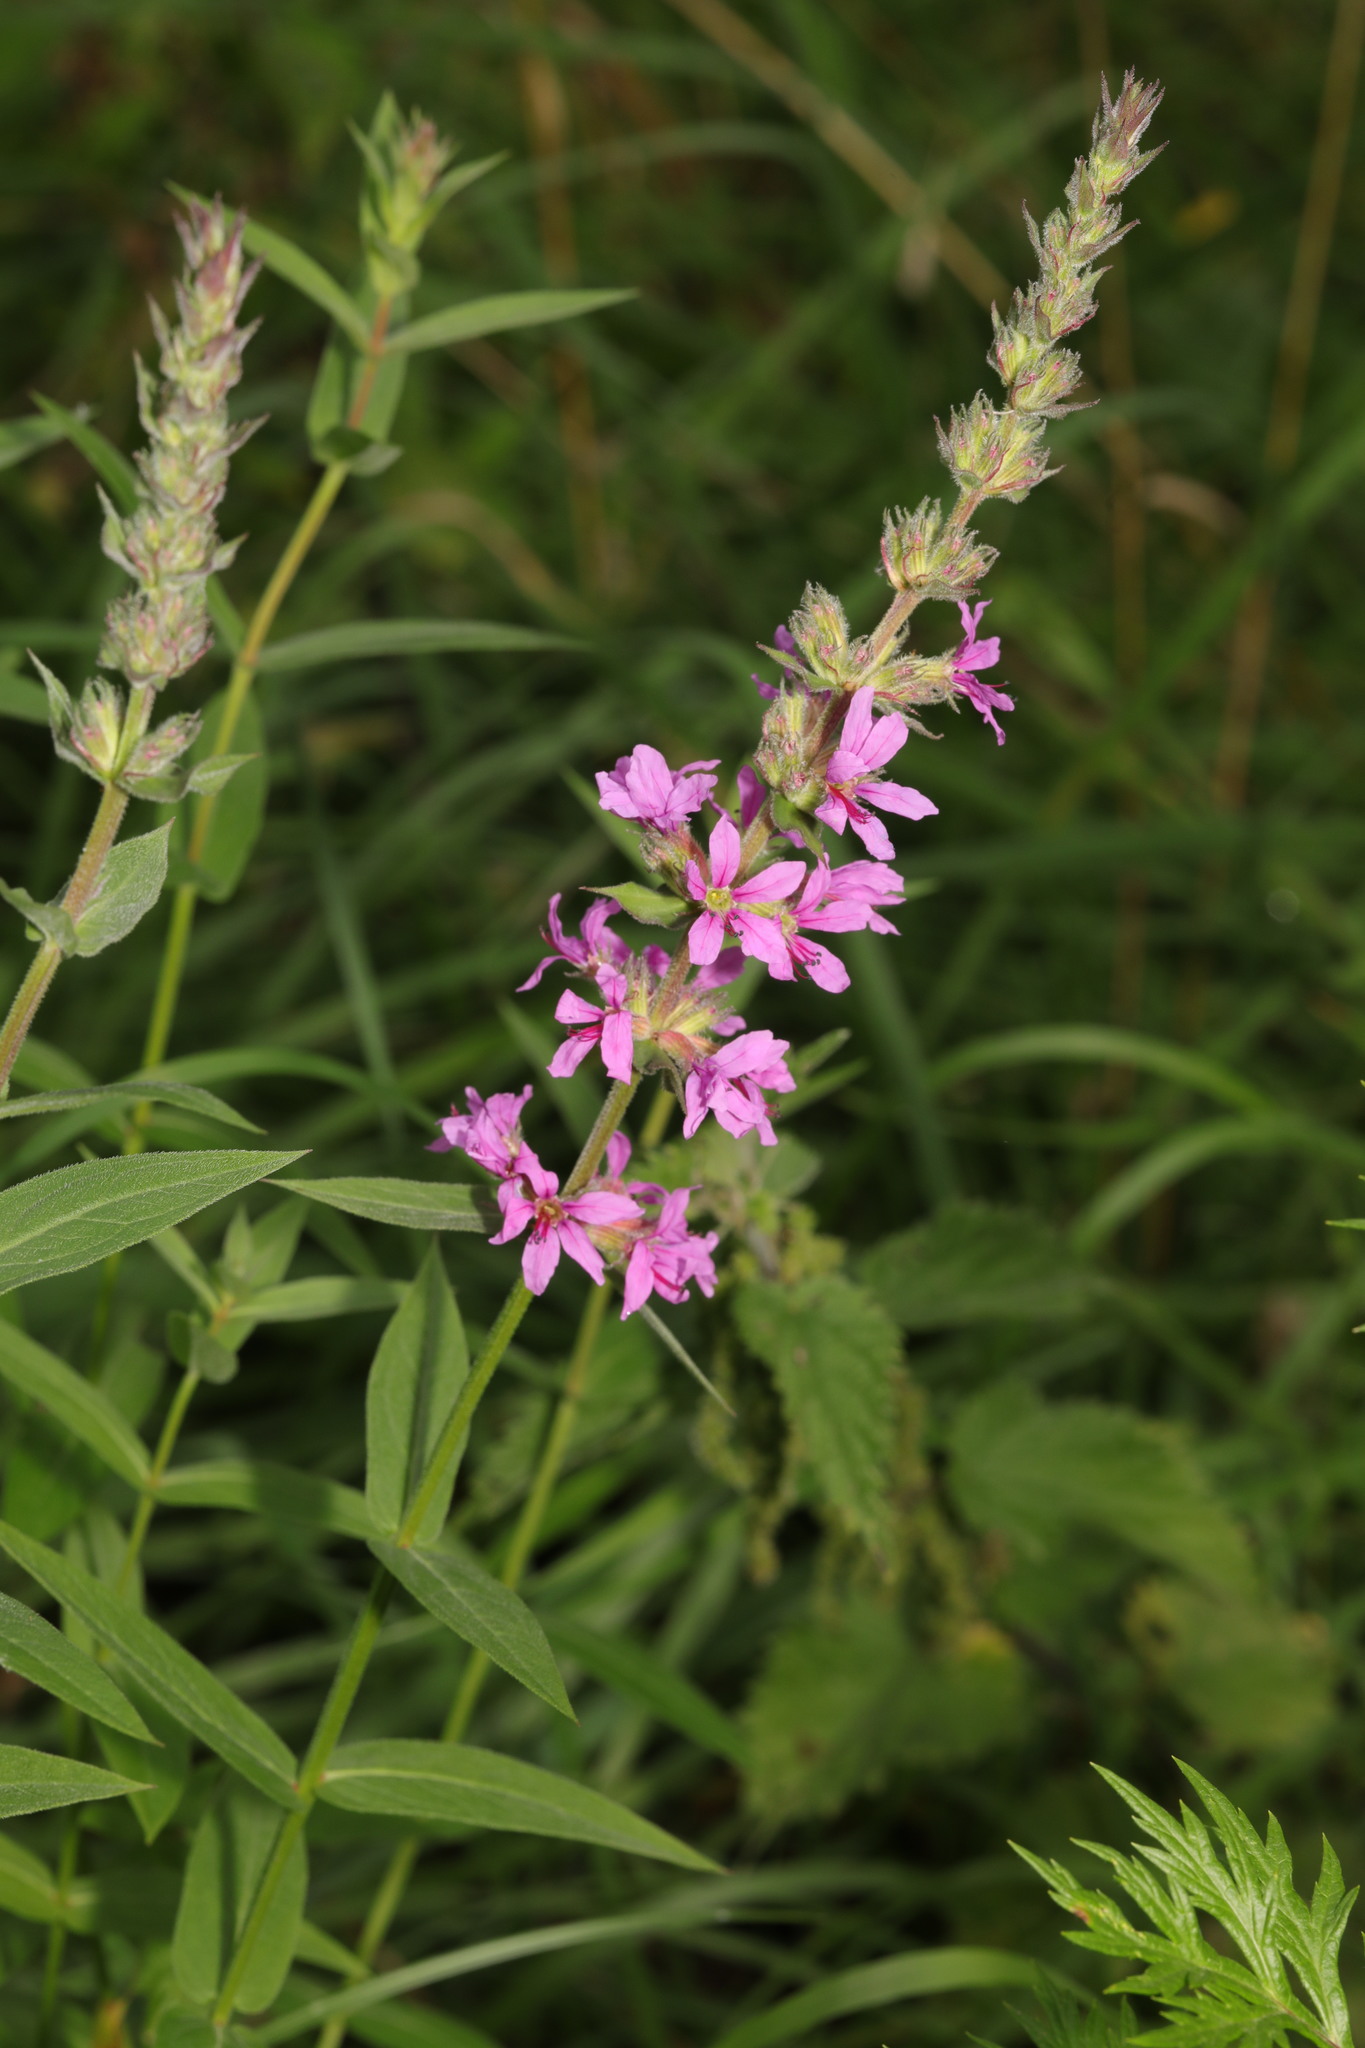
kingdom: Plantae
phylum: Tracheophyta
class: Magnoliopsida
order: Myrtales
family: Lythraceae
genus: Lythrum
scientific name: Lythrum salicaria
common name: Purple loosestrife
